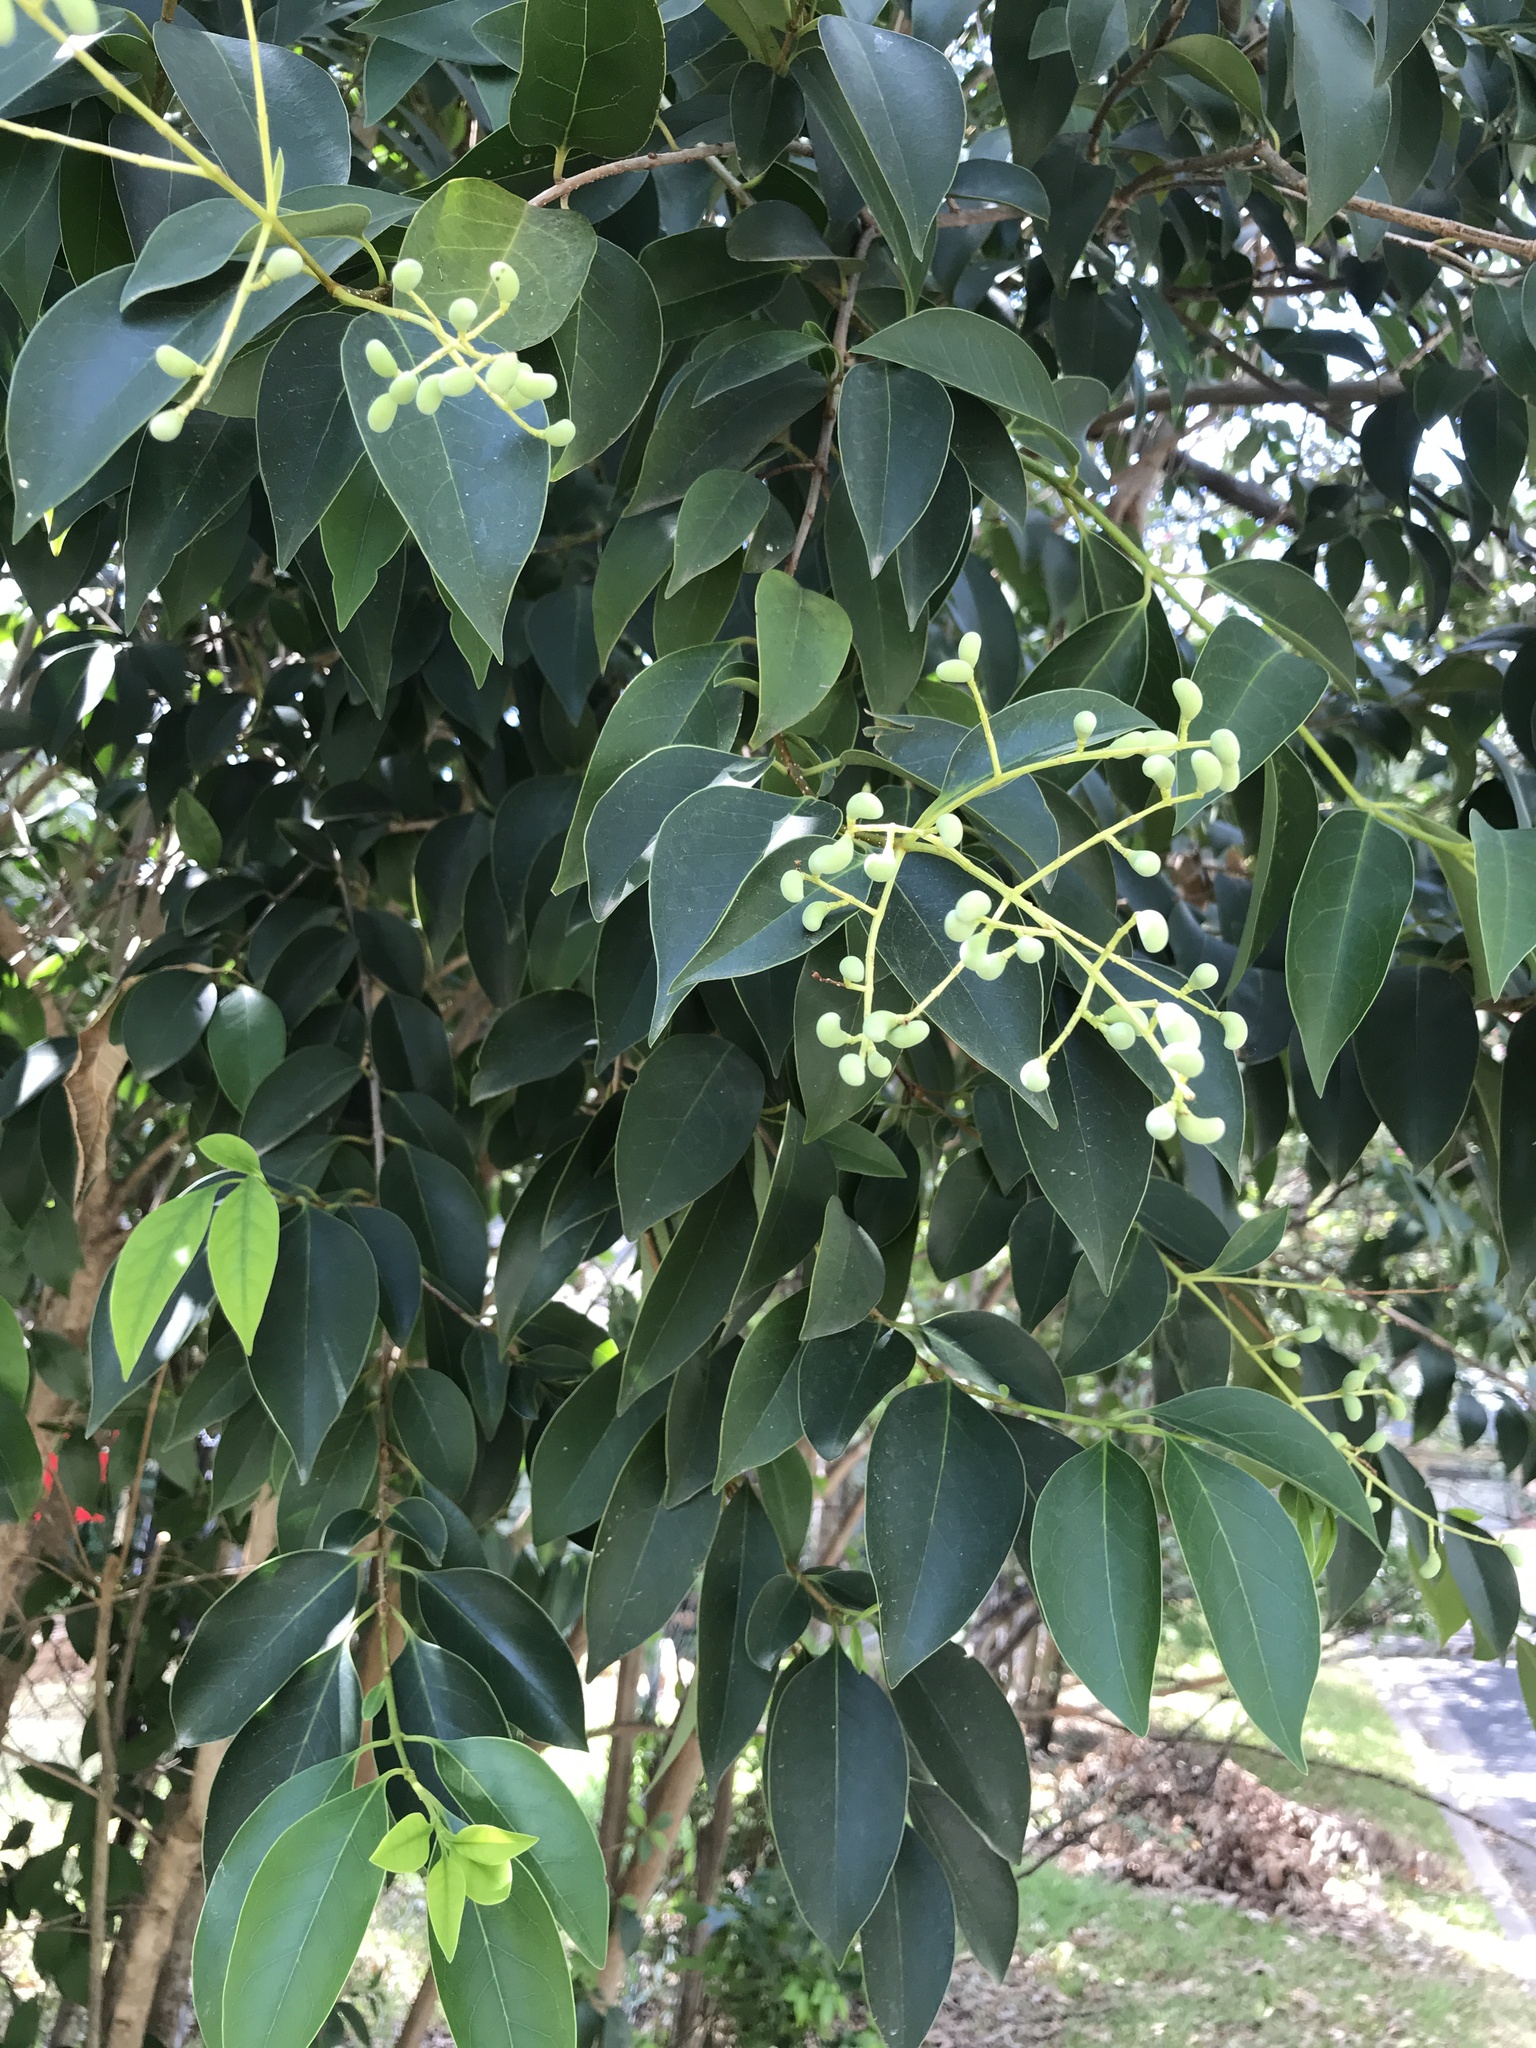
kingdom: Plantae
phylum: Tracheophyta
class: Magnoliopsida
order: Lamiales
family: Oleaceae
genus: Ligustrum
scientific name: Ligustrum lucidum
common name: Glossy privet
